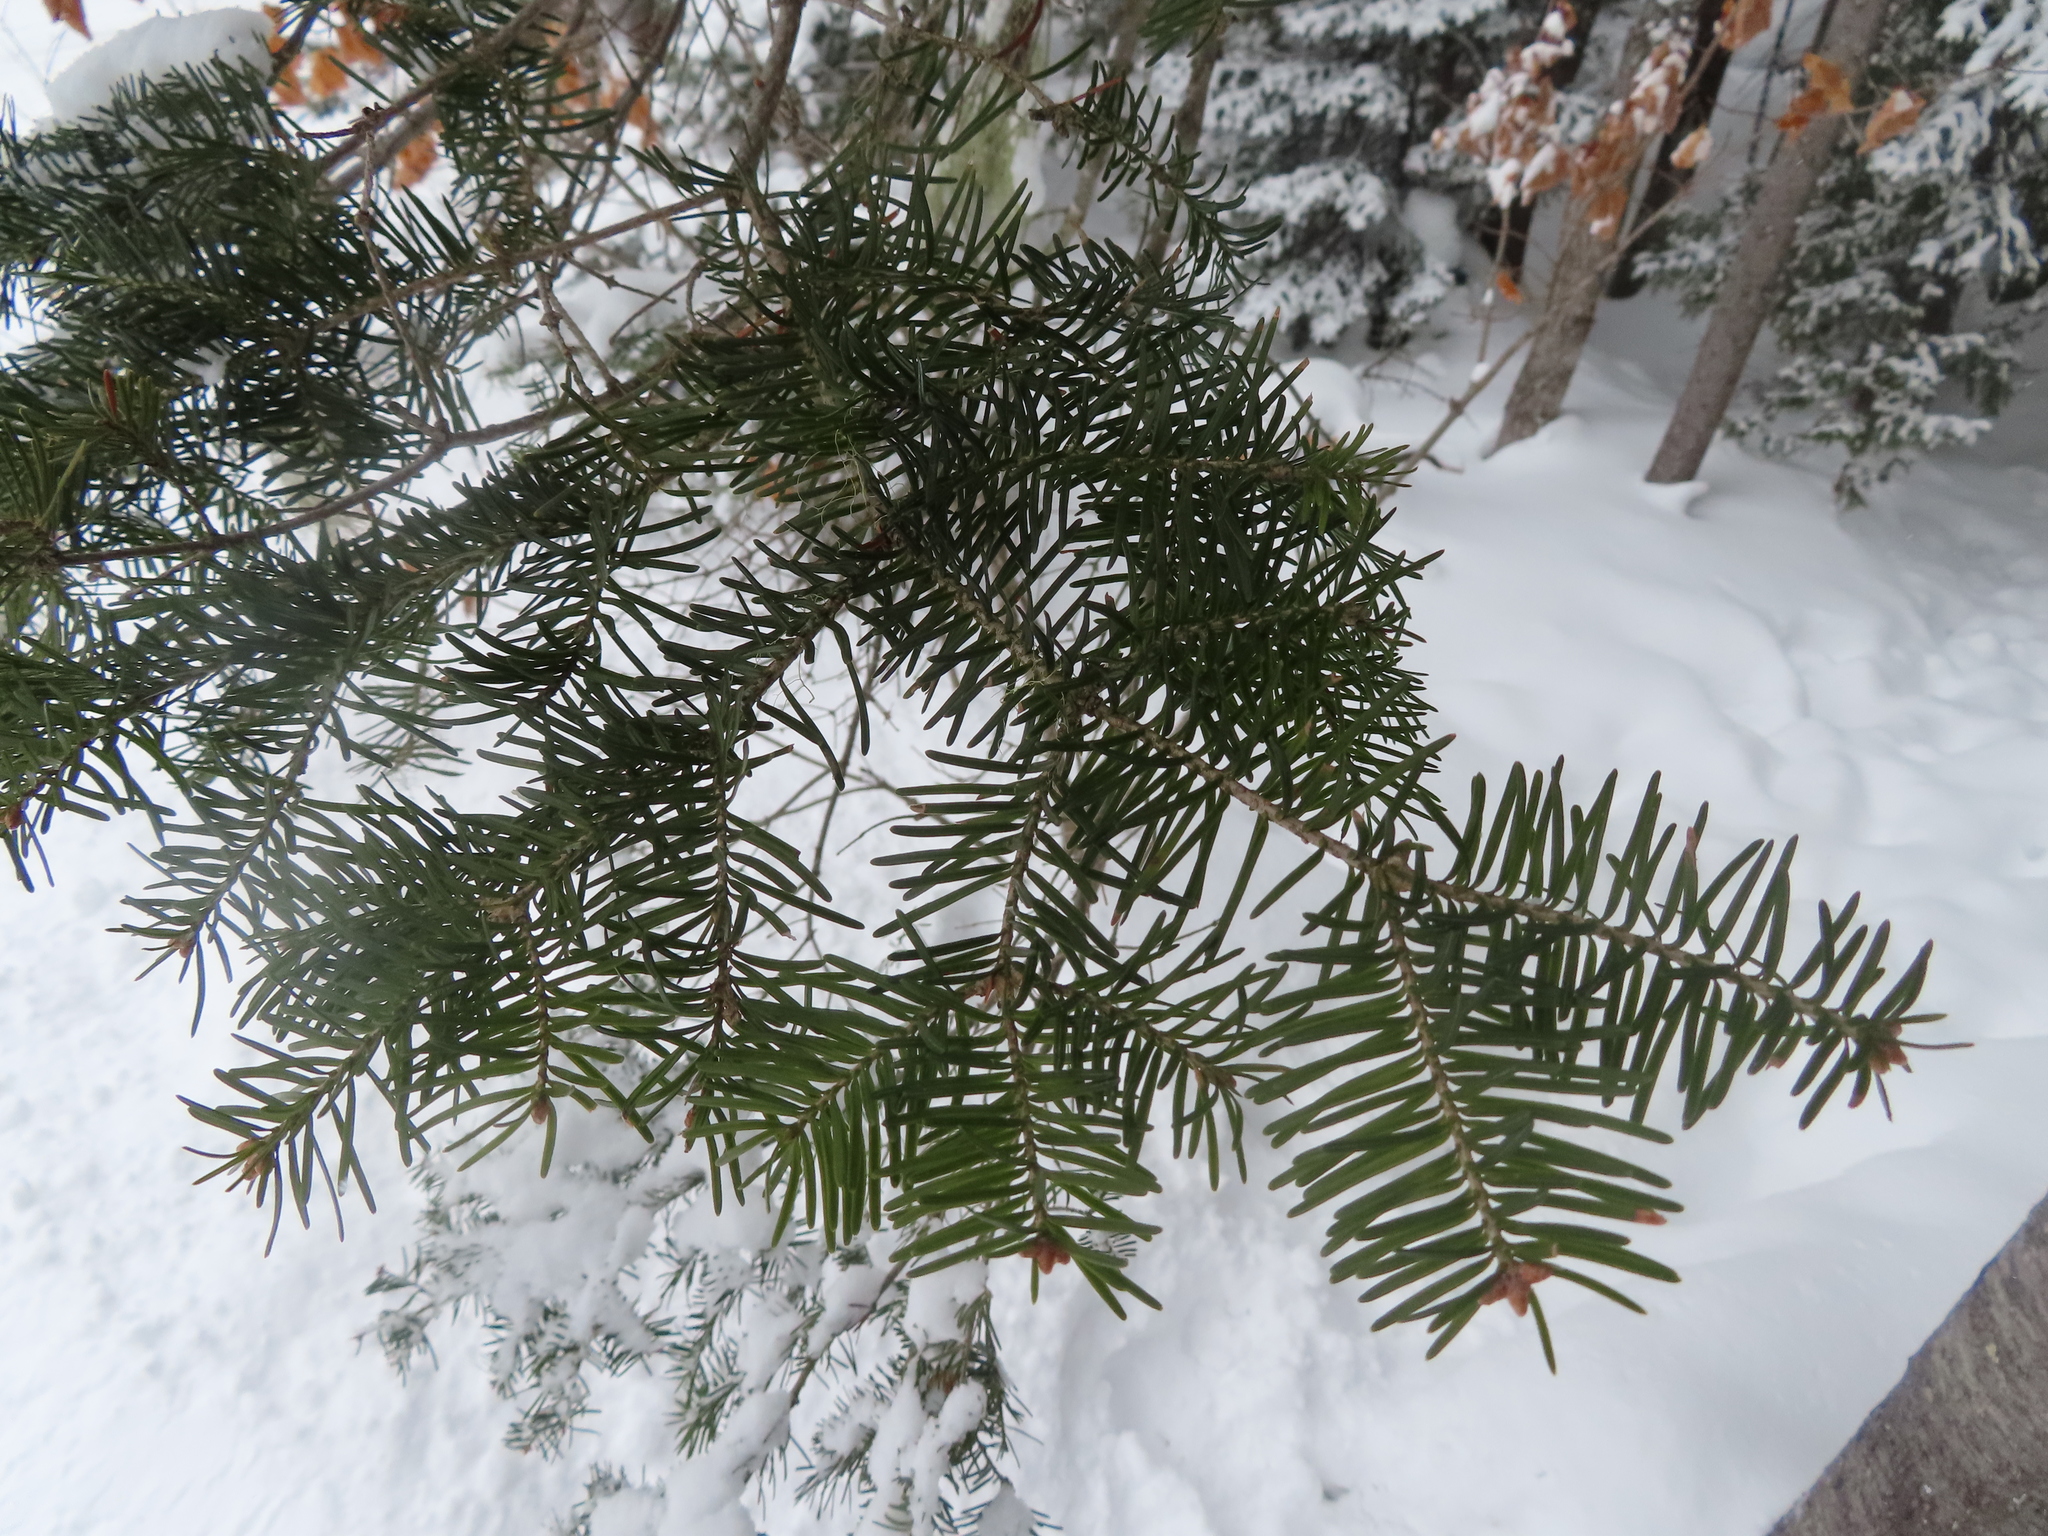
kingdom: Plantae
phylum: Tracheophyta
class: Pinopsida
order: Pinales
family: Pinaceae
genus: Abies
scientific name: Abies balsamea
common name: Balsam fir
